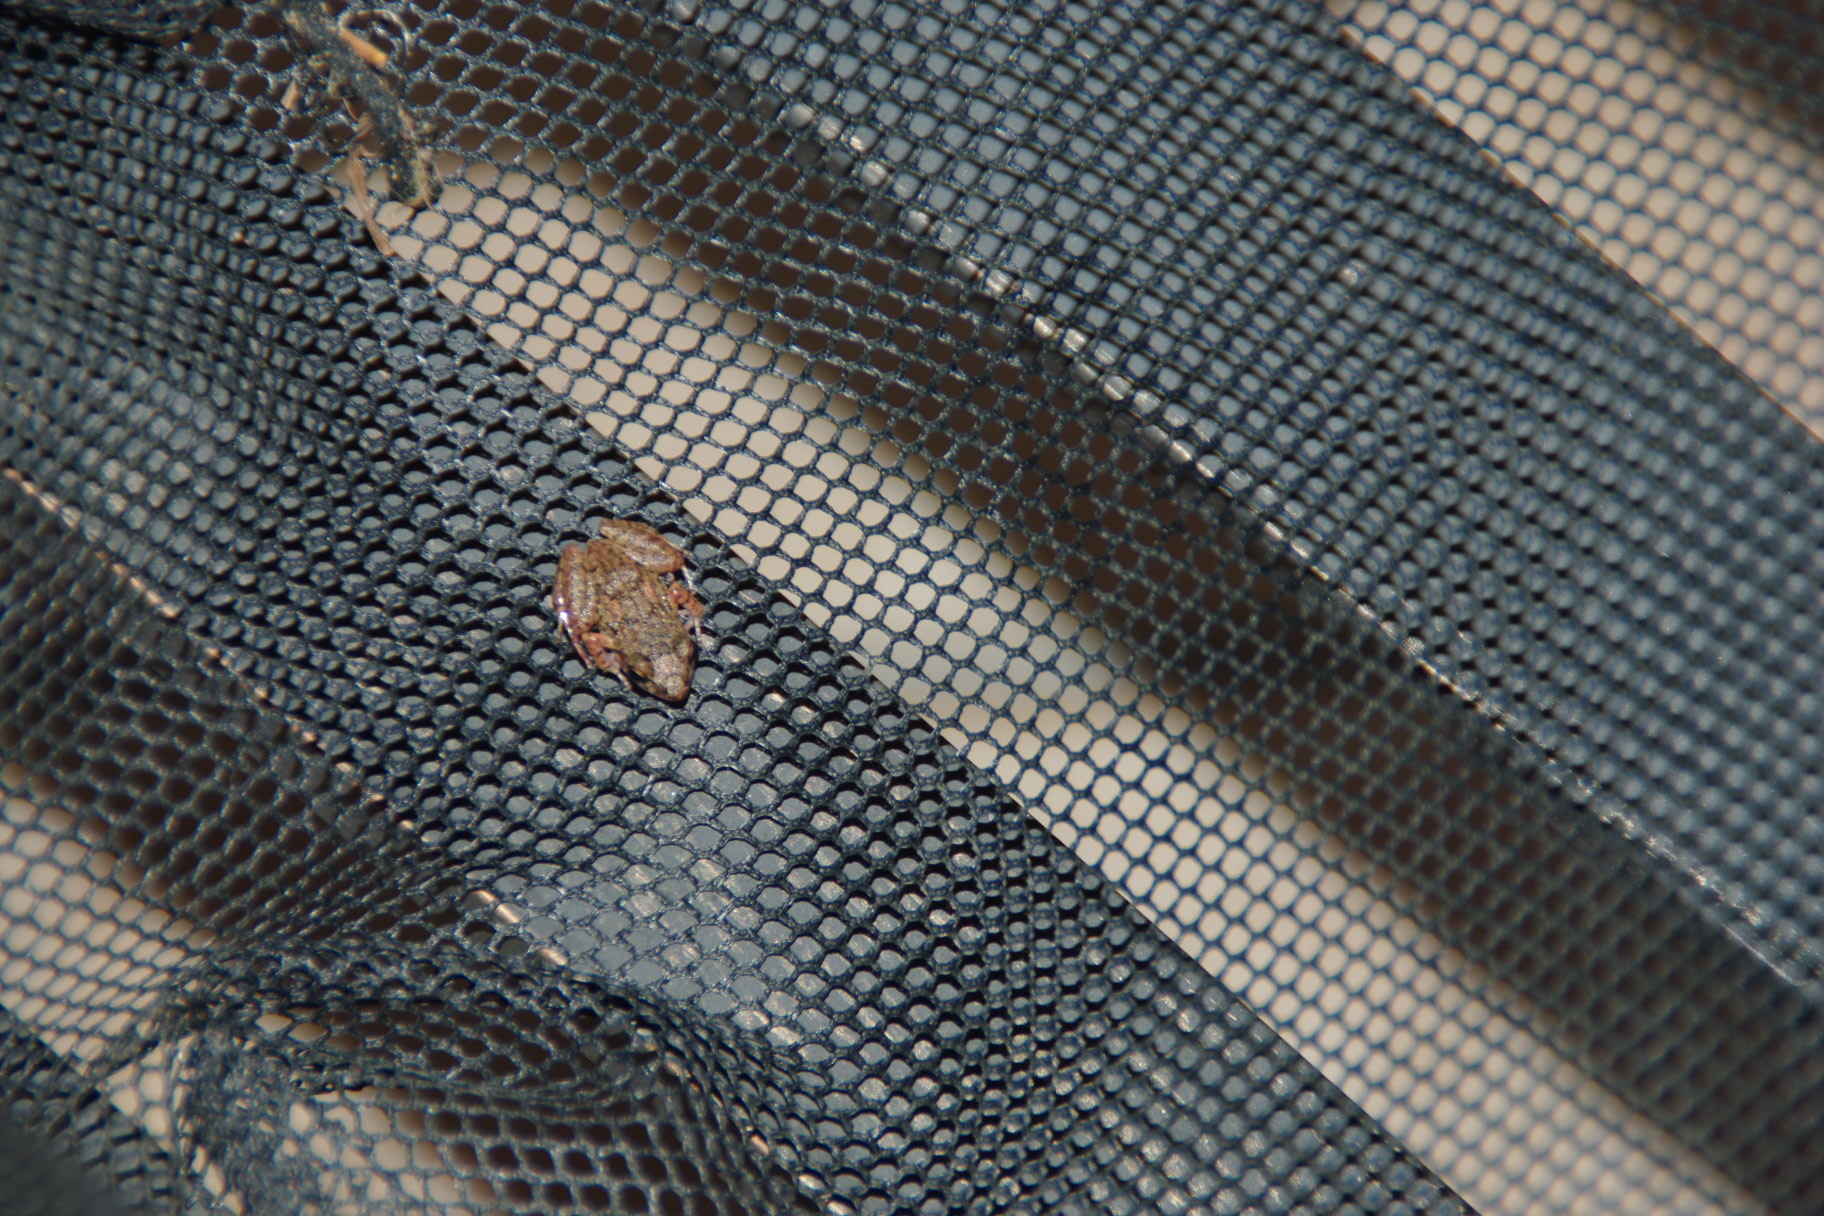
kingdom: Animalia
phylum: Chordata
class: Amphibia
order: Anura
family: Eleutherodactylidae
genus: Eleutherodactylus
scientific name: Eleutherodactylus planirostris
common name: Greenhouse frog
